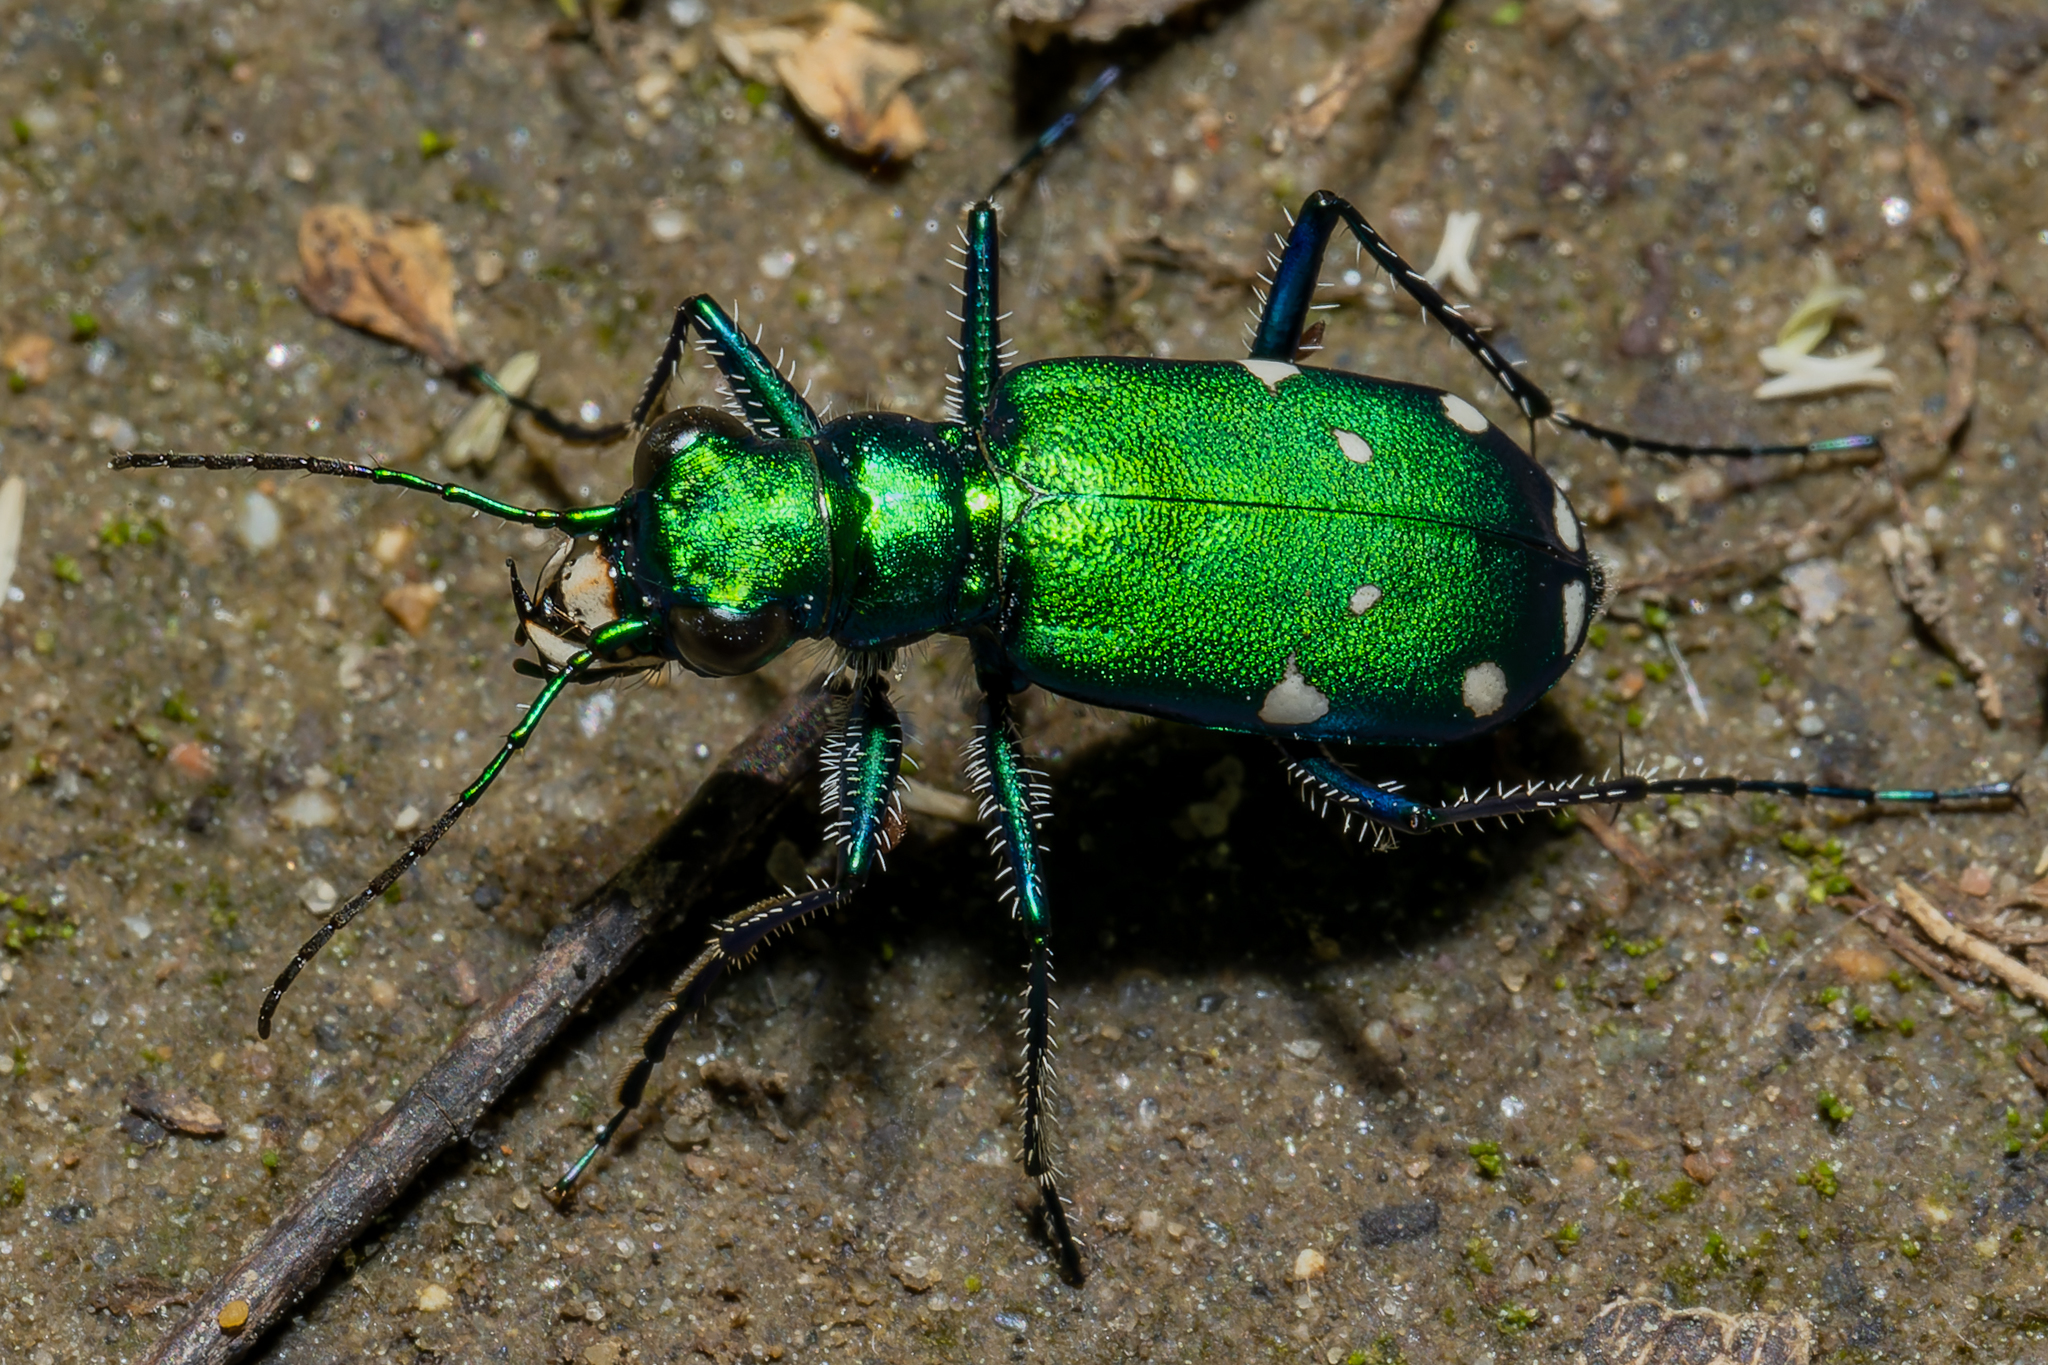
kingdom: Animalia
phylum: Arthropoda
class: Insecta
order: Coleoptera
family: Carabidae
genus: Cicindela
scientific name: Cicindela sexguttata
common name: Six-spotted tiger beetle
